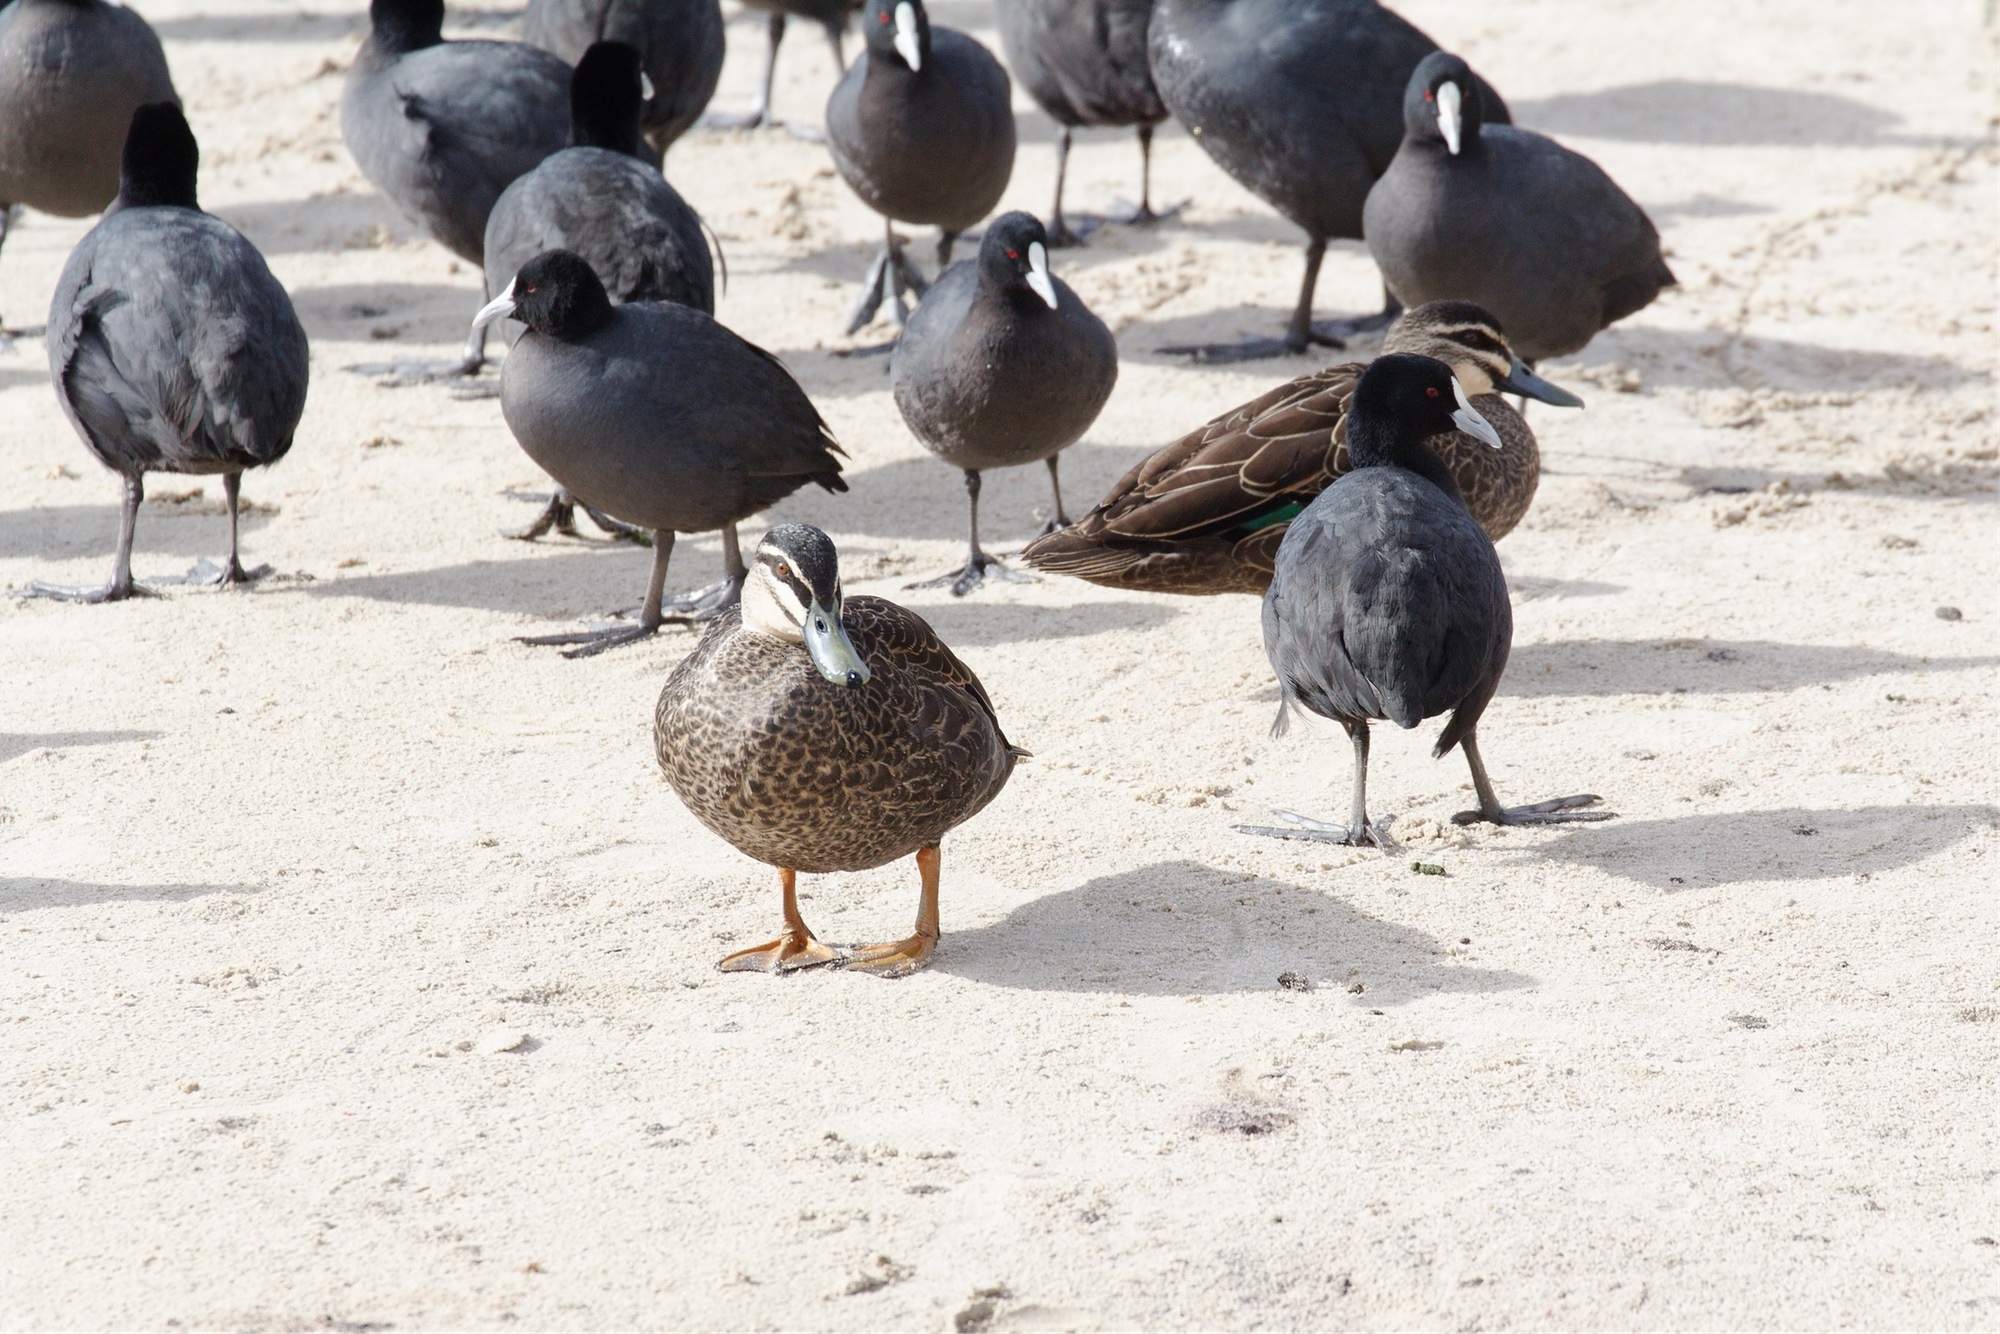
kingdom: Animalia
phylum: Chordata
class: Aves
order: Anseriformes
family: Anatidae
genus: Anas
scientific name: Anas
